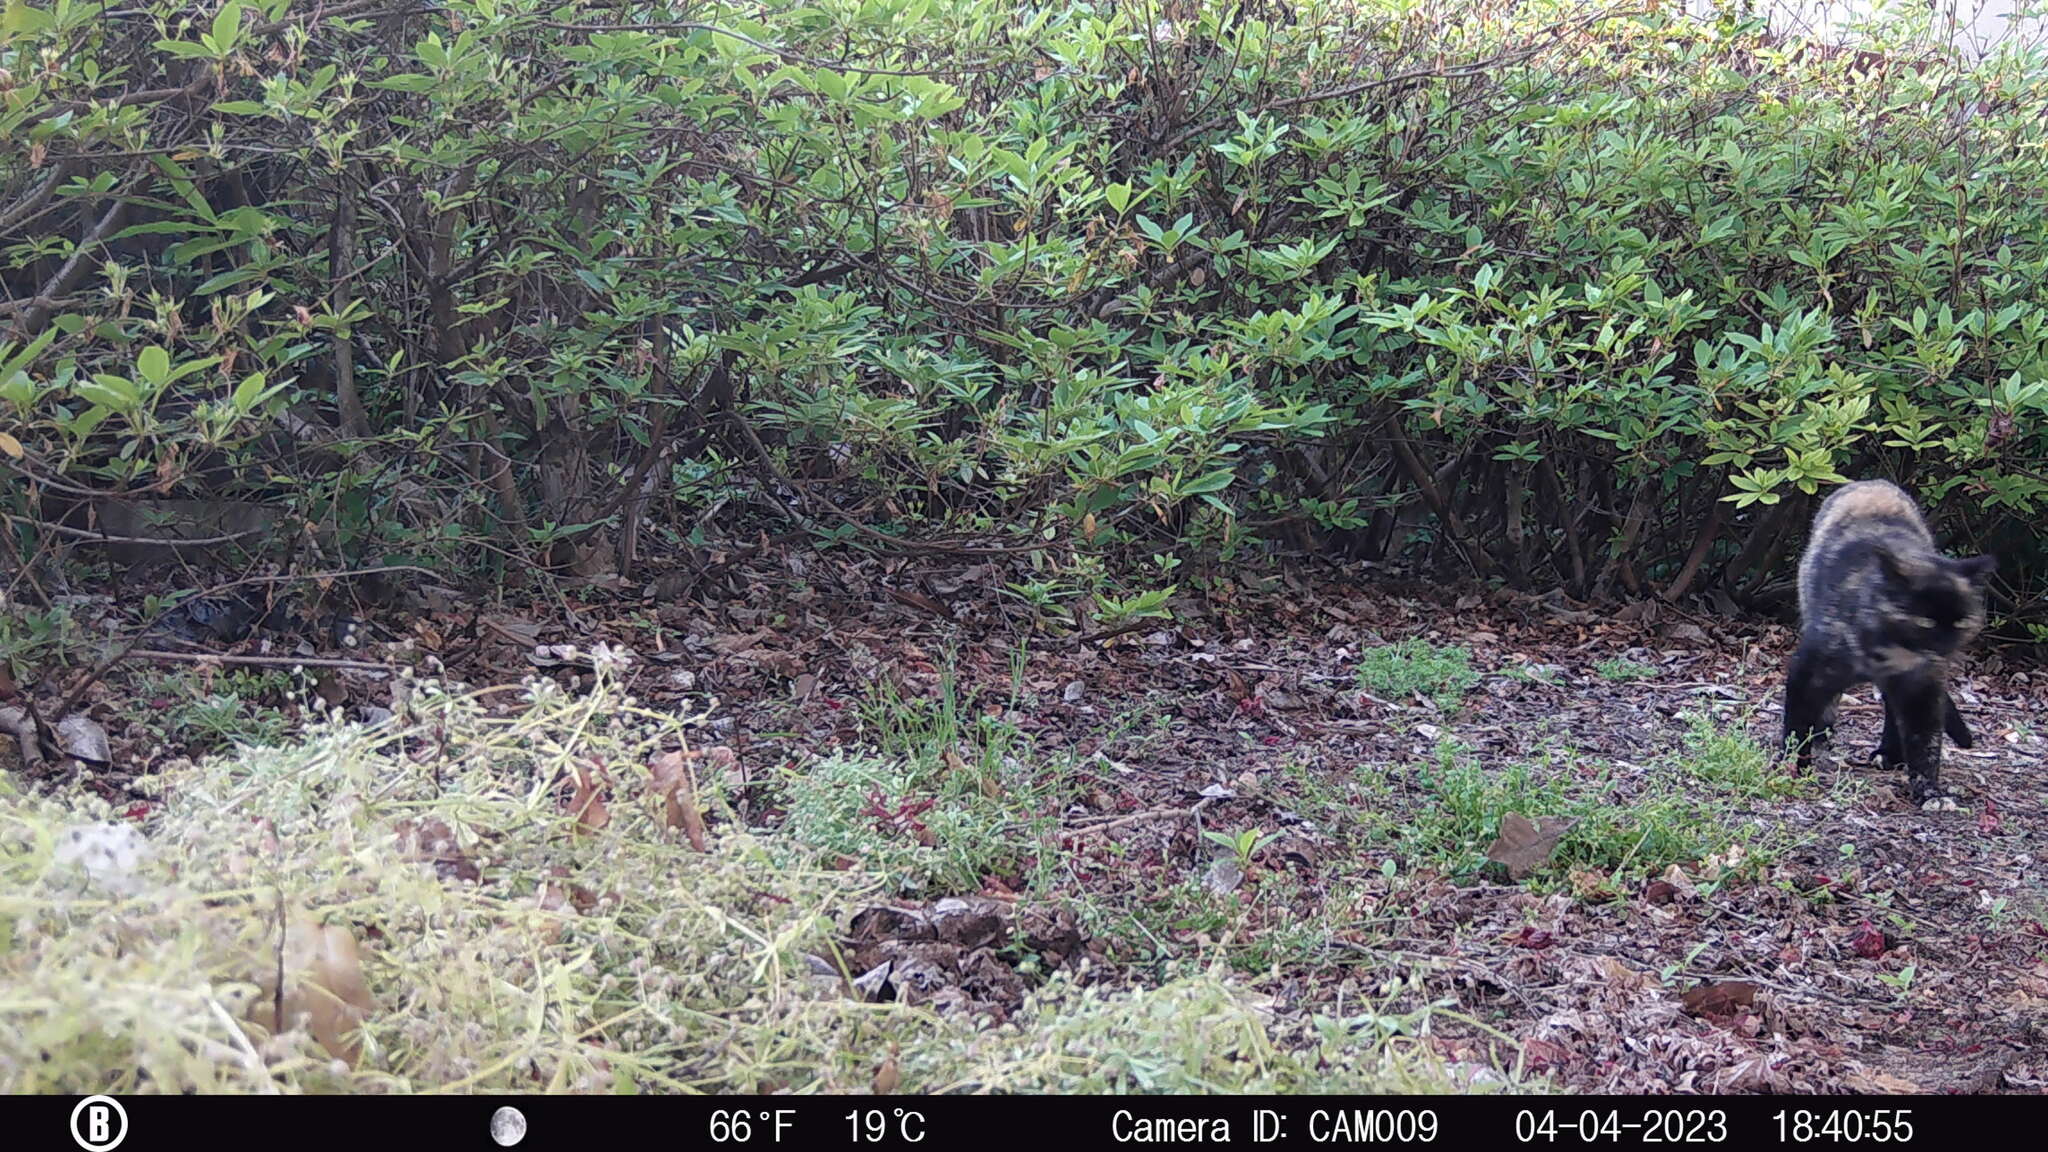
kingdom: Animalia
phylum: Chordata
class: Mammalia
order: Carnivora
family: Felidae
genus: Felis
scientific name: Felis catus
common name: Domestic cat
